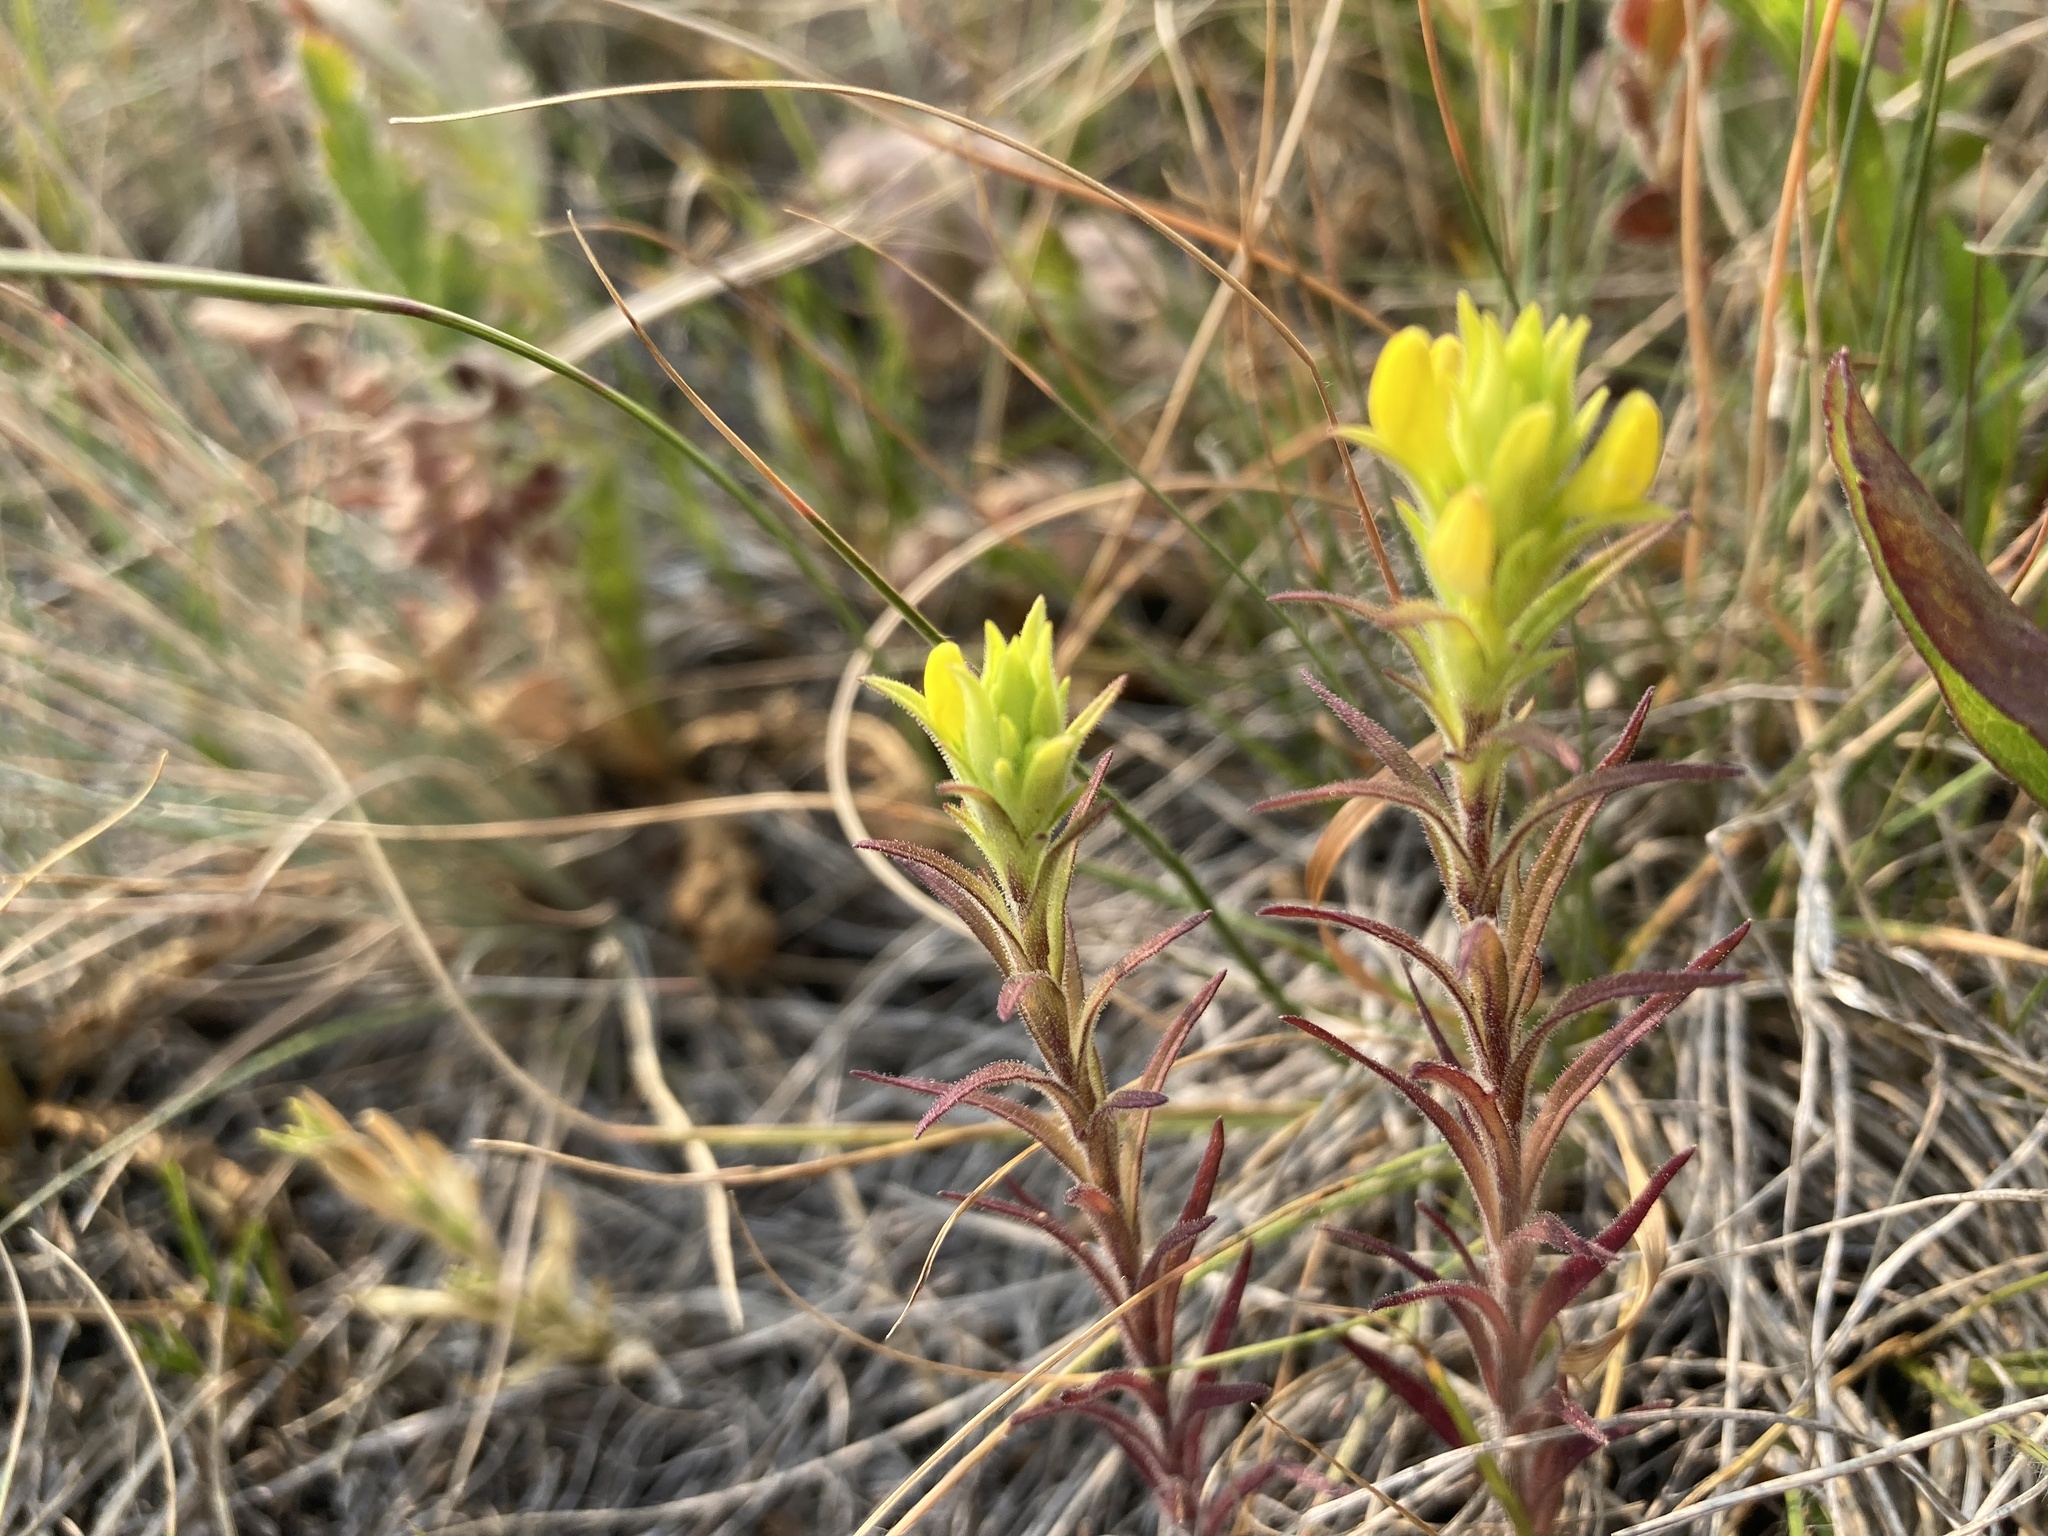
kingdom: Plantae
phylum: Tracheophyta
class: Magnoliopsida
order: Lamiales
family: Orobanchaceae
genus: Orthocarpus
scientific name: Orthocarpus luteus
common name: Golden-tongue owl's-clover
